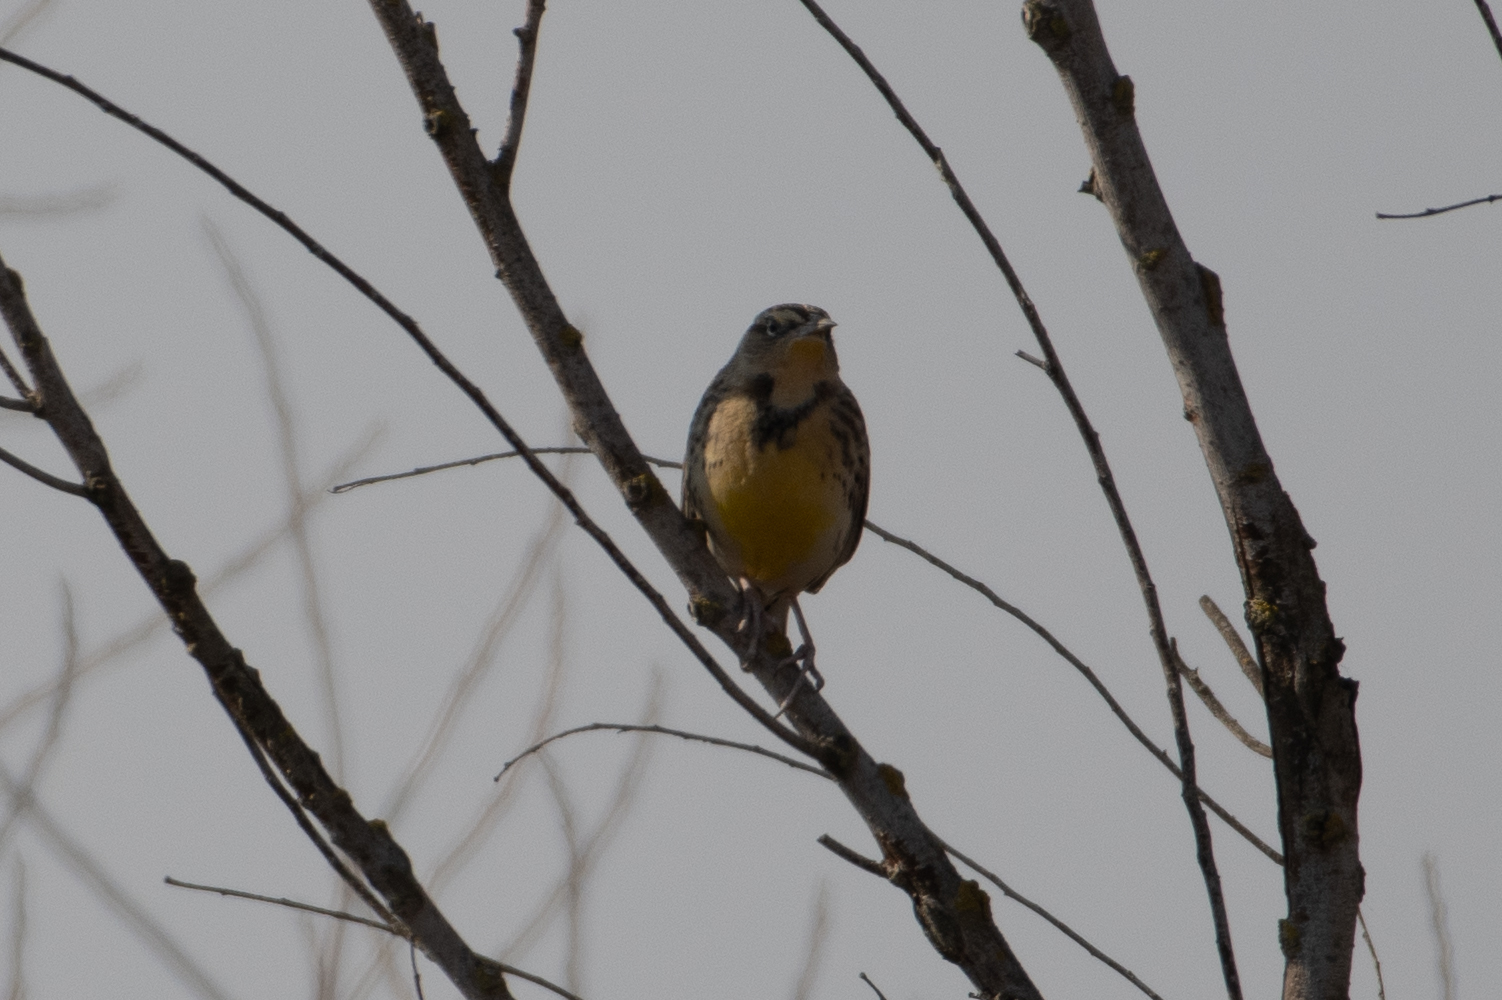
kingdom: Animalia
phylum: Chordata
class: Aves
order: Passeriformes
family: Icteridae
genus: Sturnella
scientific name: Sturnella neglecta
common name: Western meadowlark
